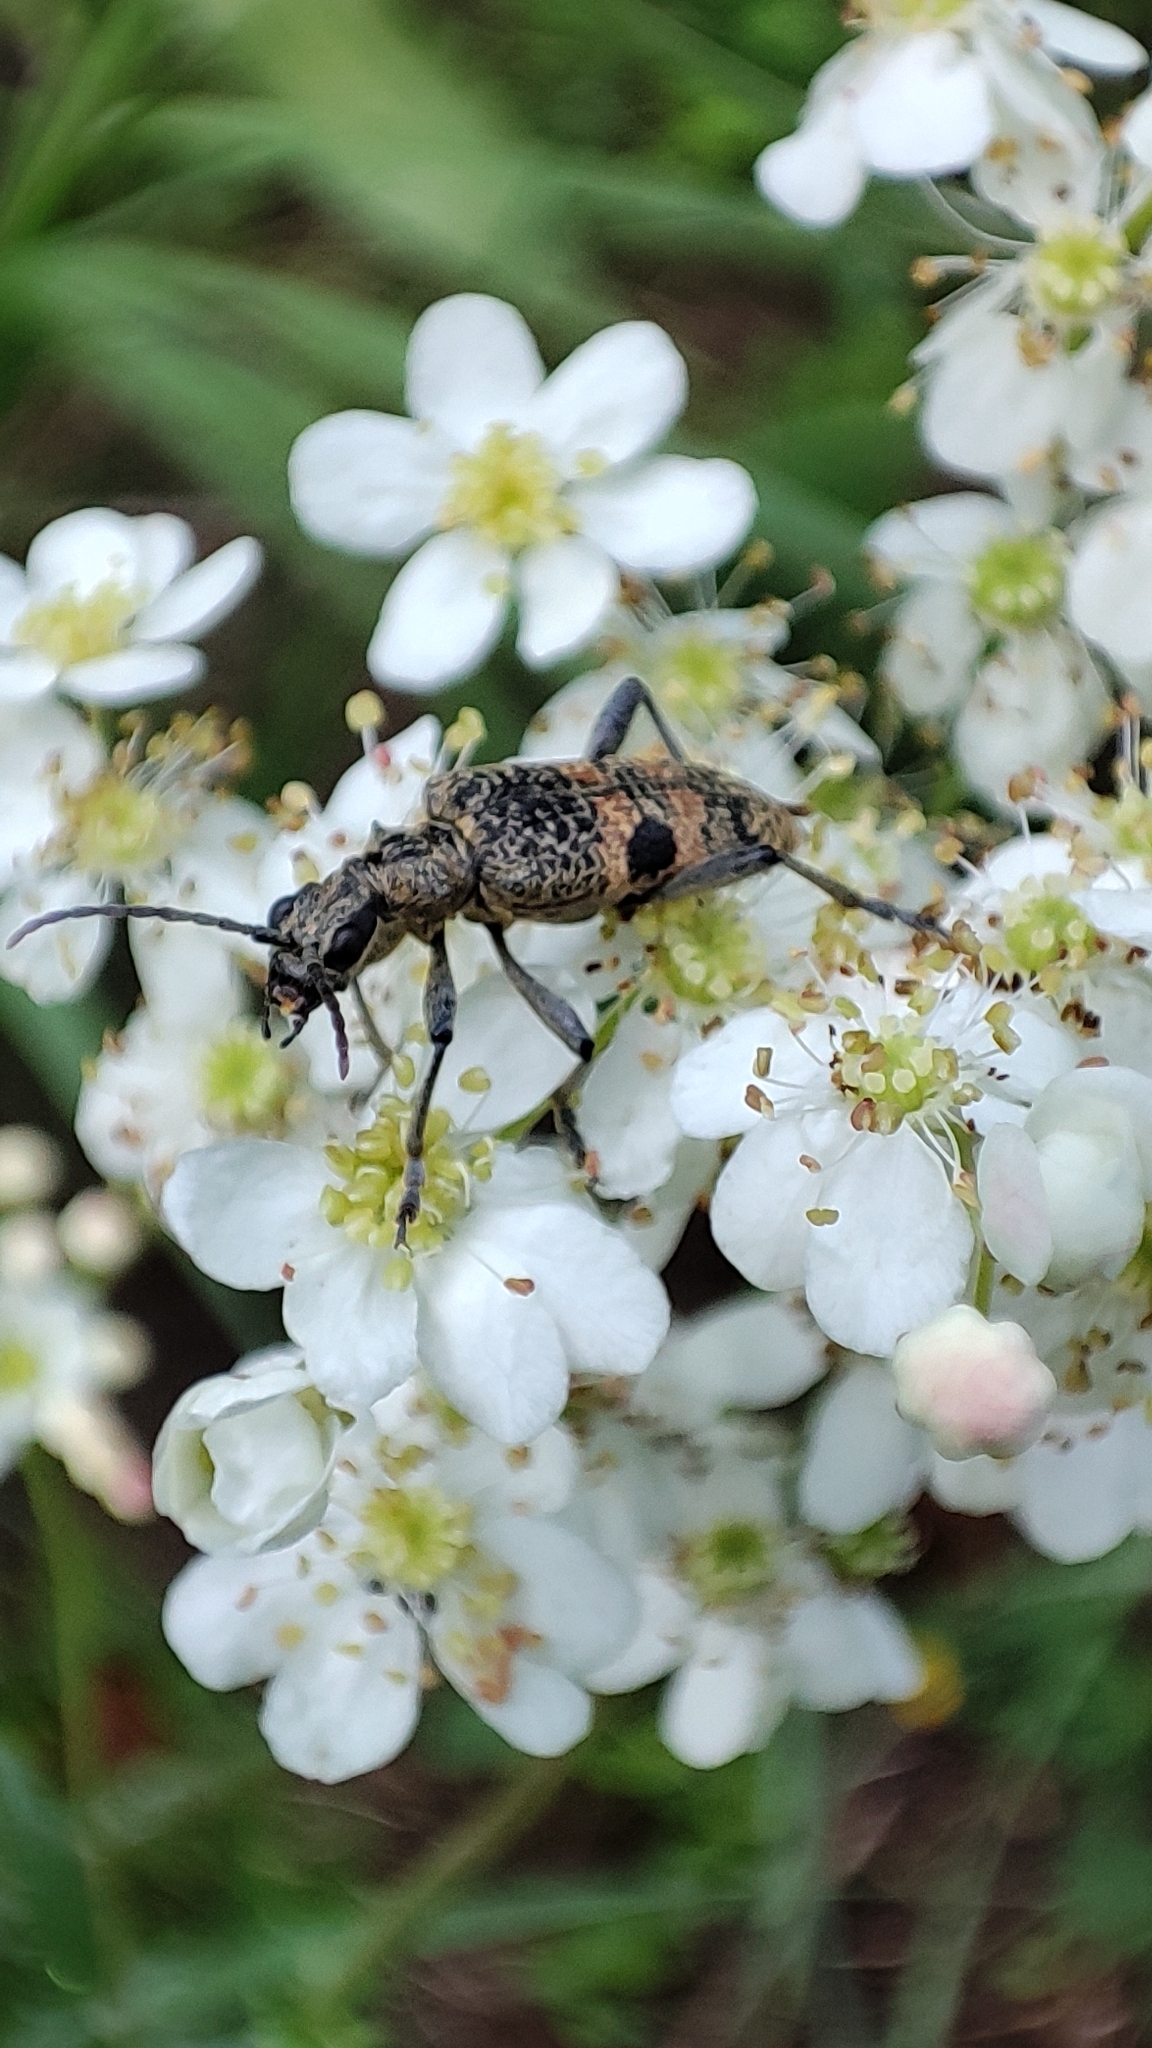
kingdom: Animalia
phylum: Arthropoda
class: Insecta
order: Coleoptera
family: Cerambycidae
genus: Rhagium
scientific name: Rhagium mordax
